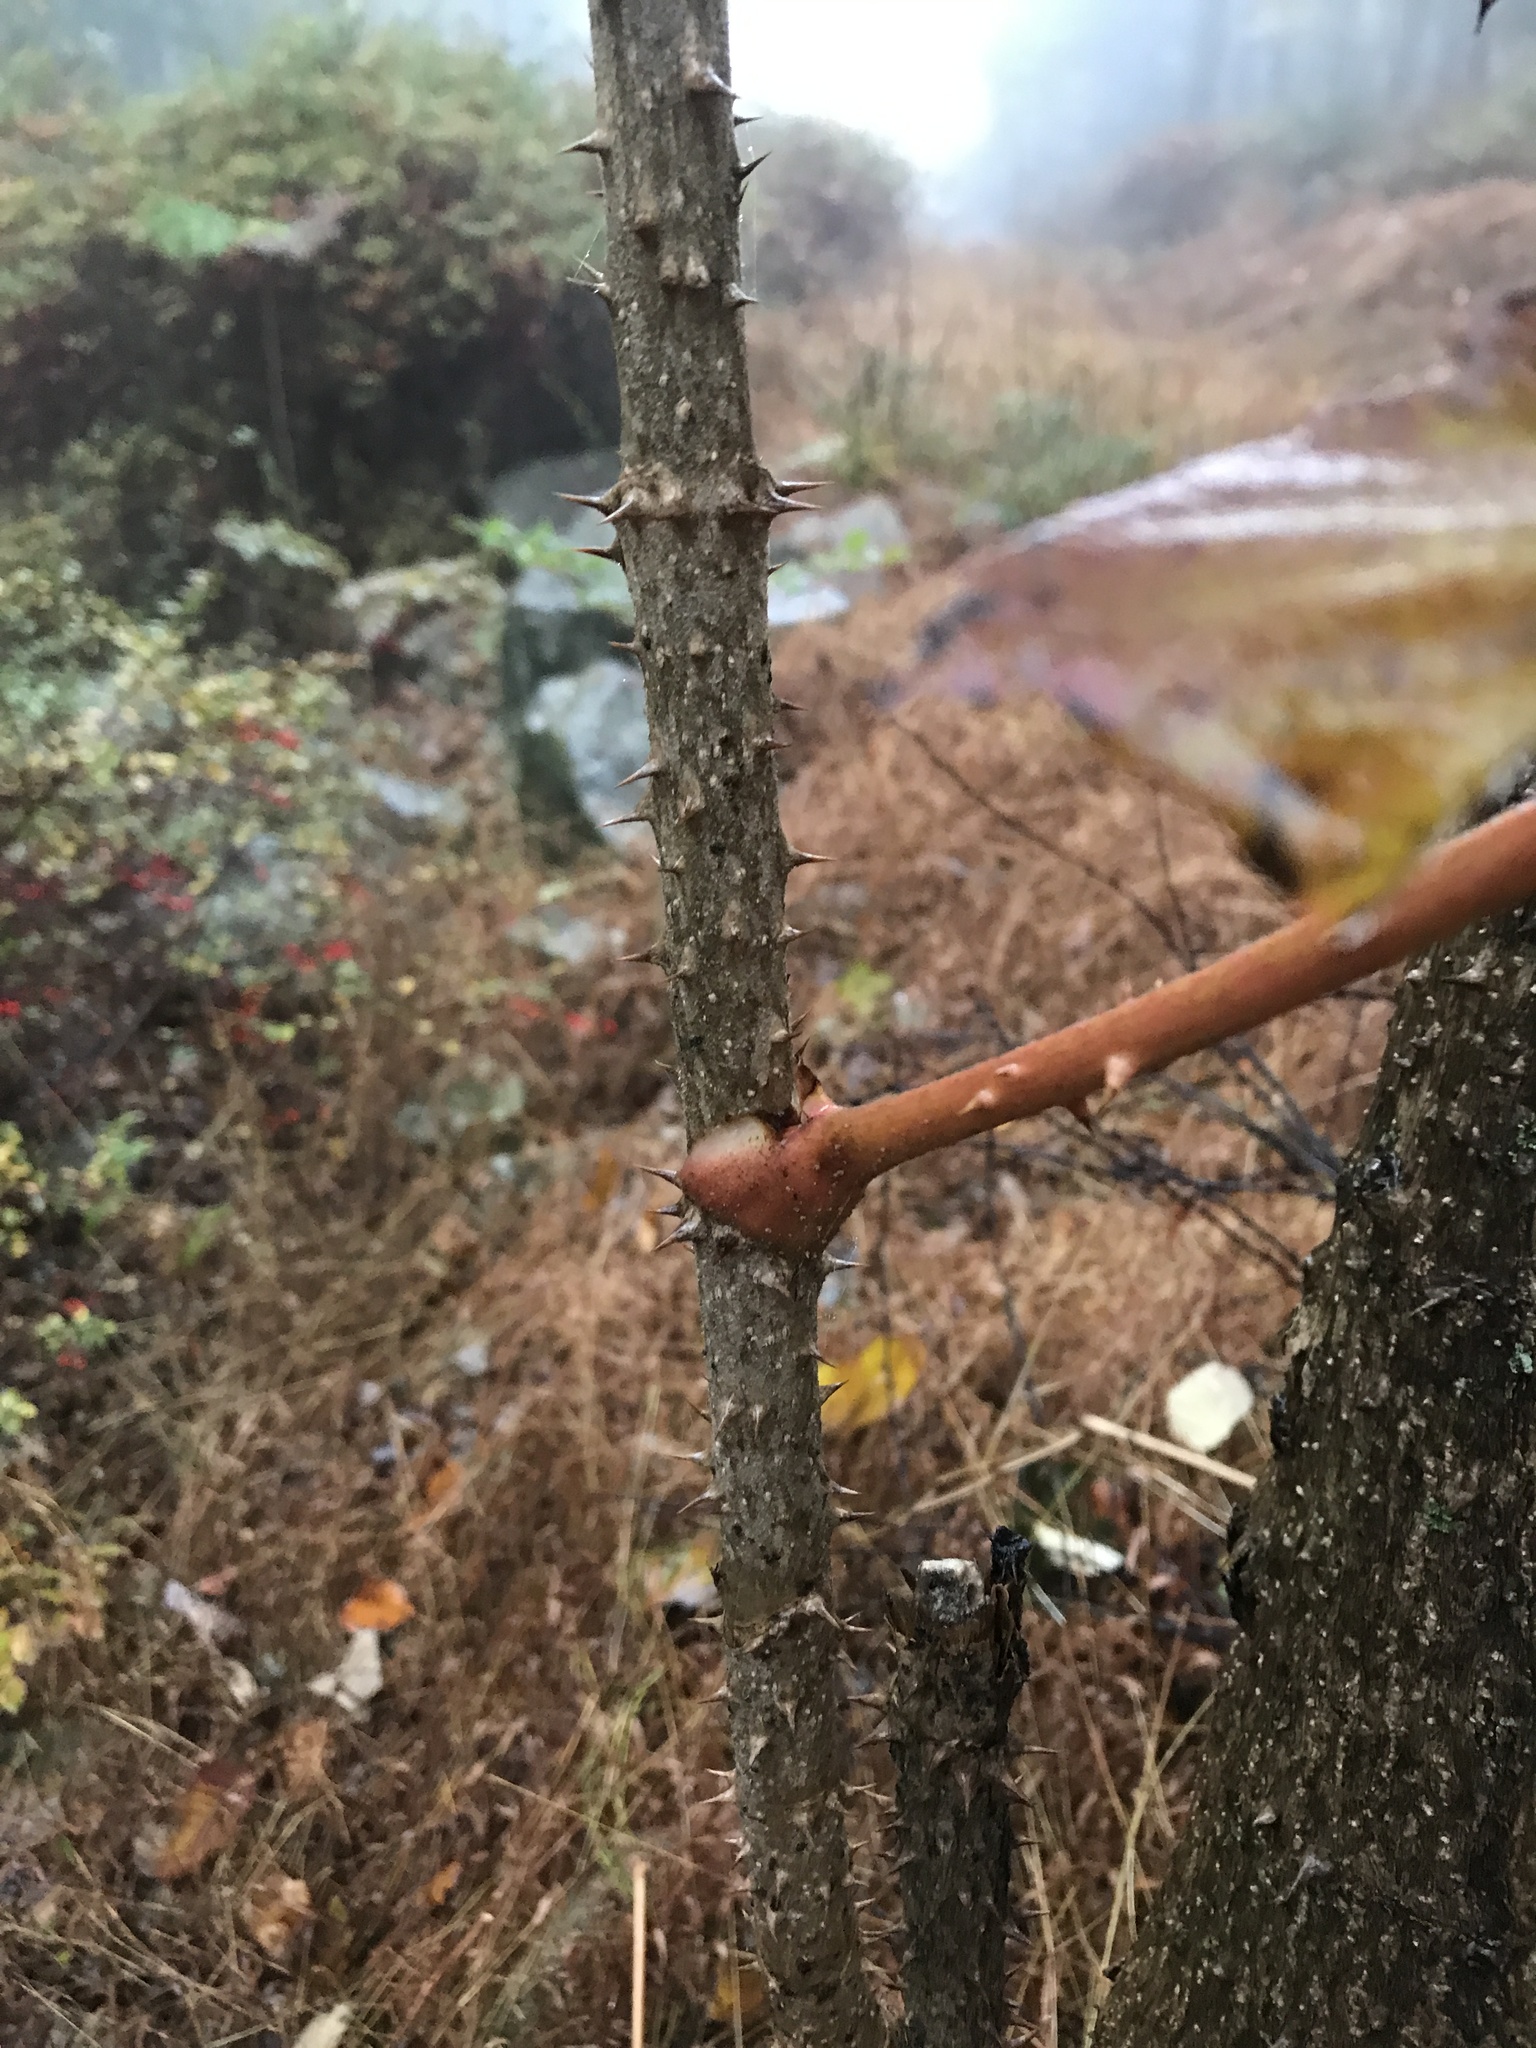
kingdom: Plantae
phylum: Tracheophyta
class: Magnoliopsida
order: Apiales
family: Araliaceae
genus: Aralia
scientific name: Aralia elata
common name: Japanese angelica-tree
